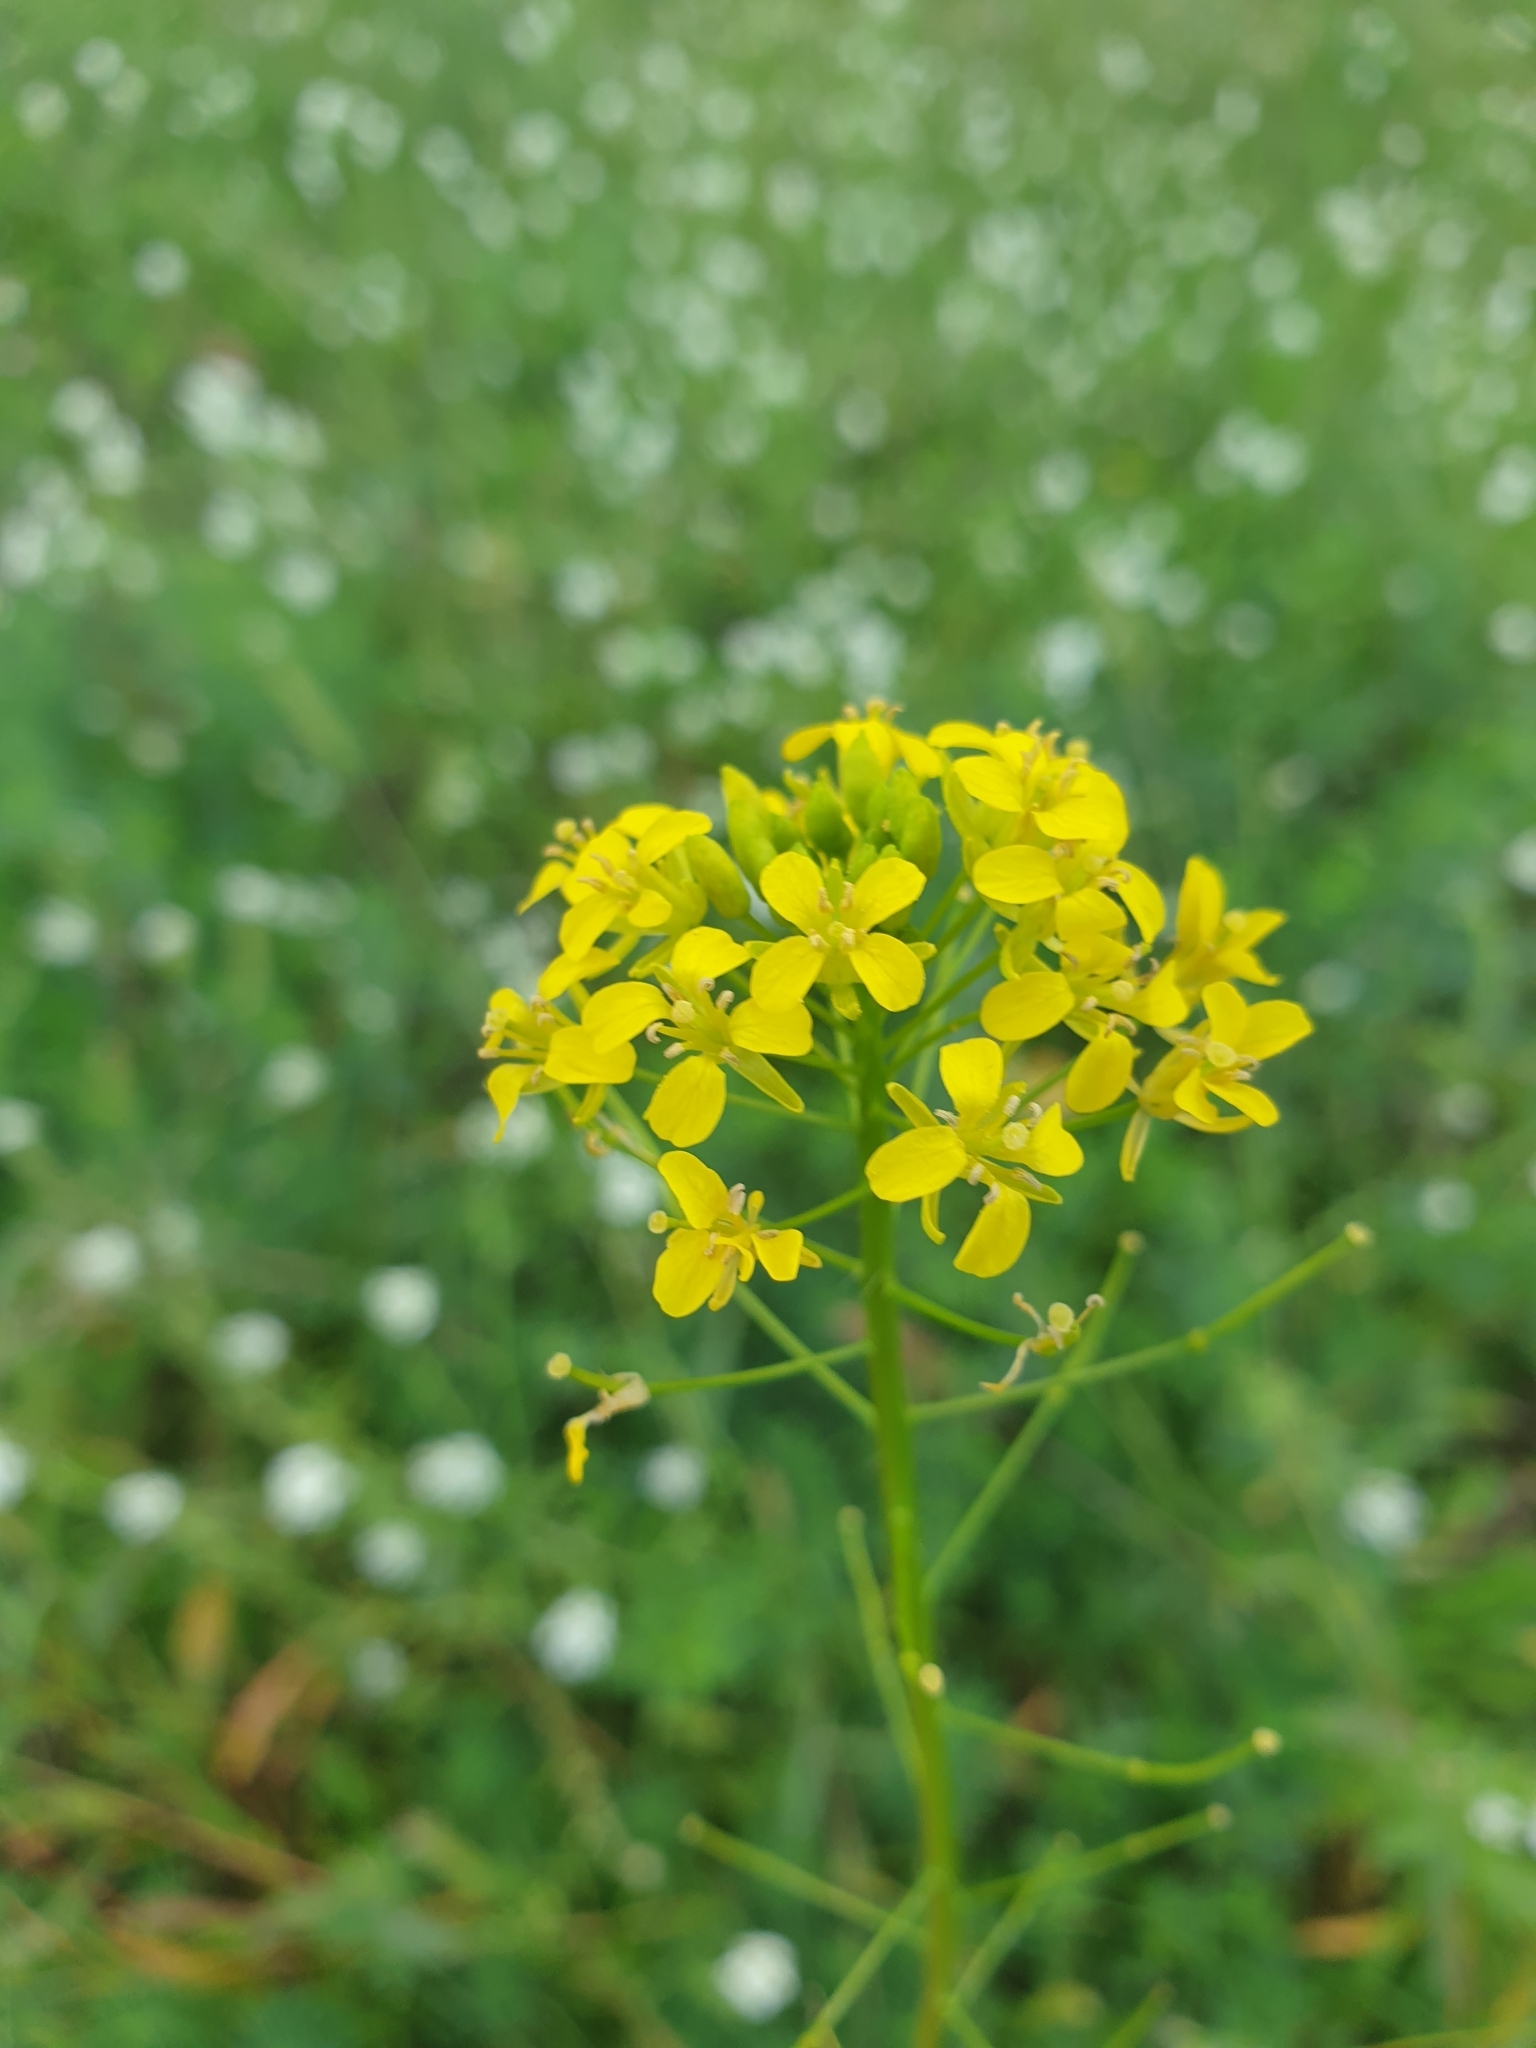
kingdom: Plantae
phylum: Tracheophyta
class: Magnoliopsida
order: Brassicales
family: Brassicaceae
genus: Sisymbrium
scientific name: Sisymbrium loeselii
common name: False london-rocket
